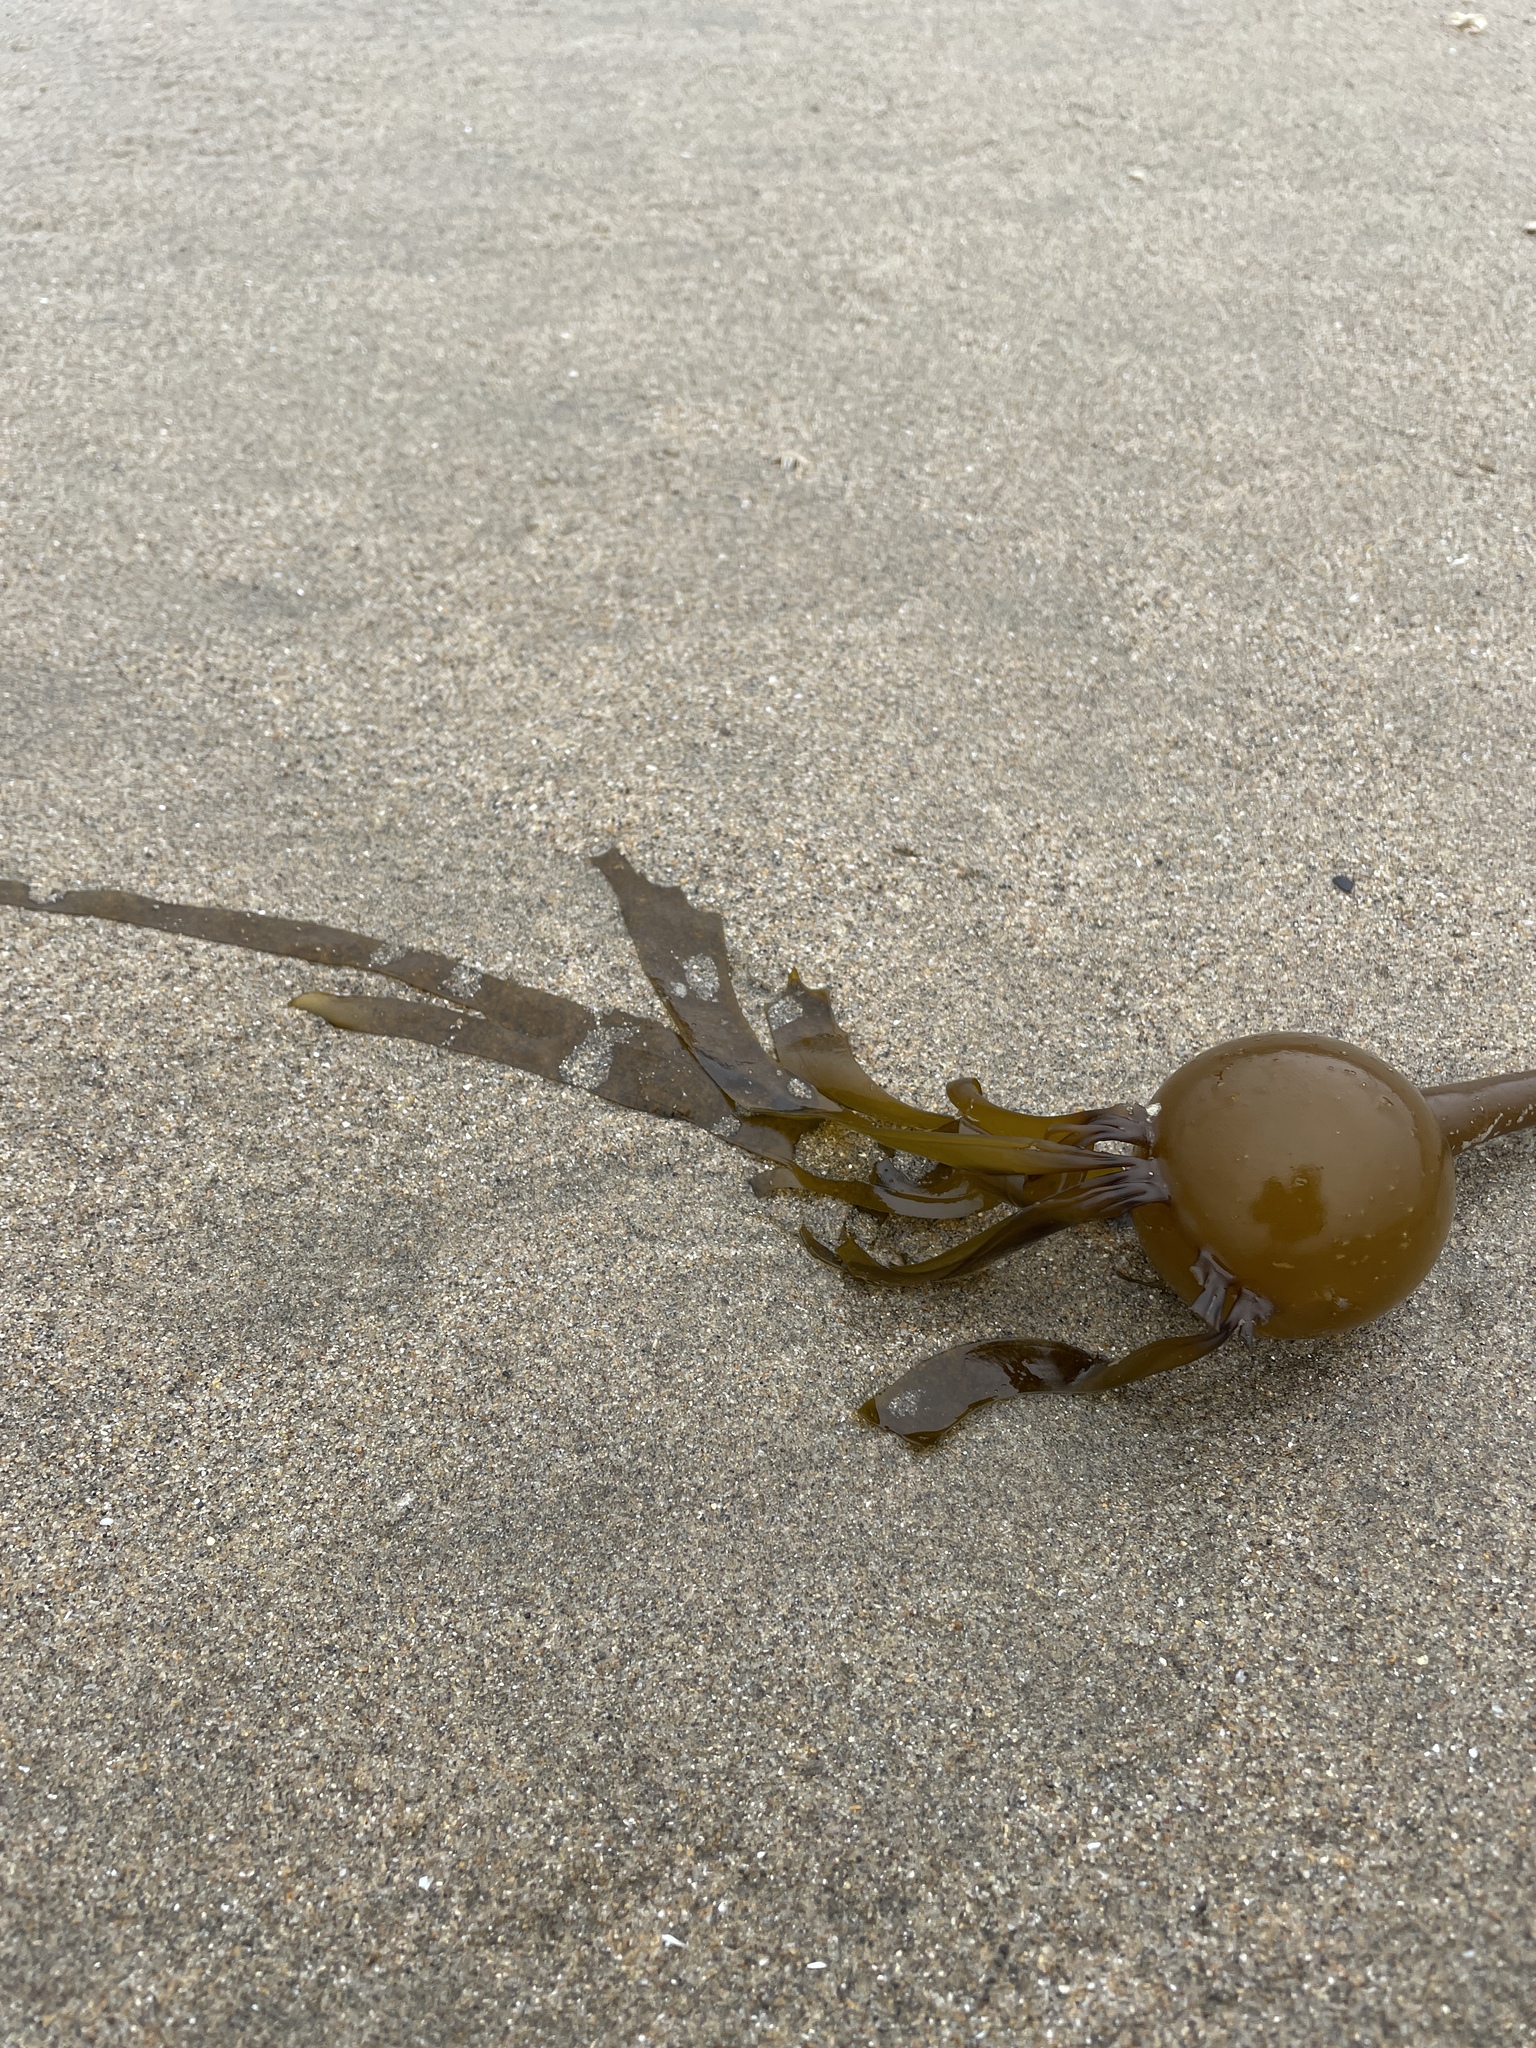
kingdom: Chromista
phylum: Ochrophyta
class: Phaeophyceae
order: Laminariales
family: Laminariaceae
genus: Nereocystis
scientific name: Nereocystis luetkeana
